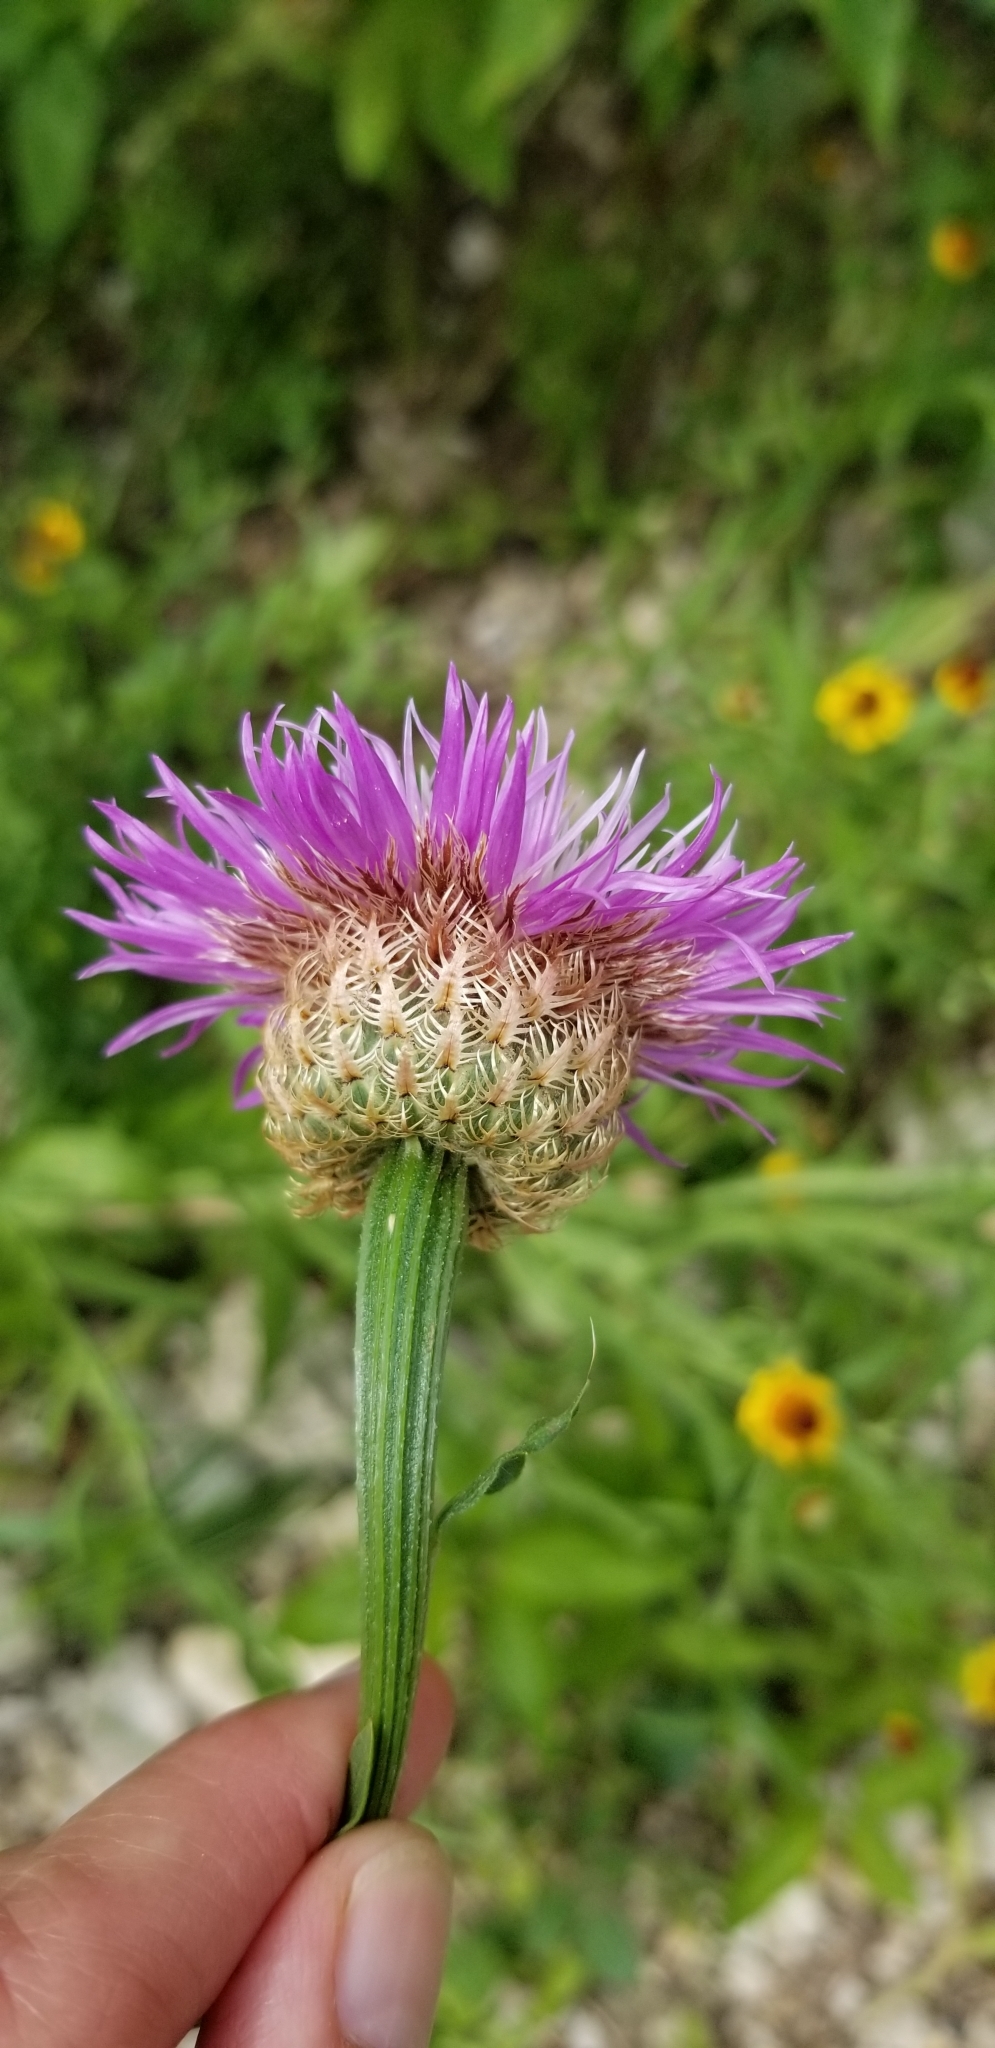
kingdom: Plantae
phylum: Tracheophyta
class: Magnoliopsida
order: Asterales
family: Asteraceae
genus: Plectocephalus
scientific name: Plectocephalus americanus
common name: American basket-flower
